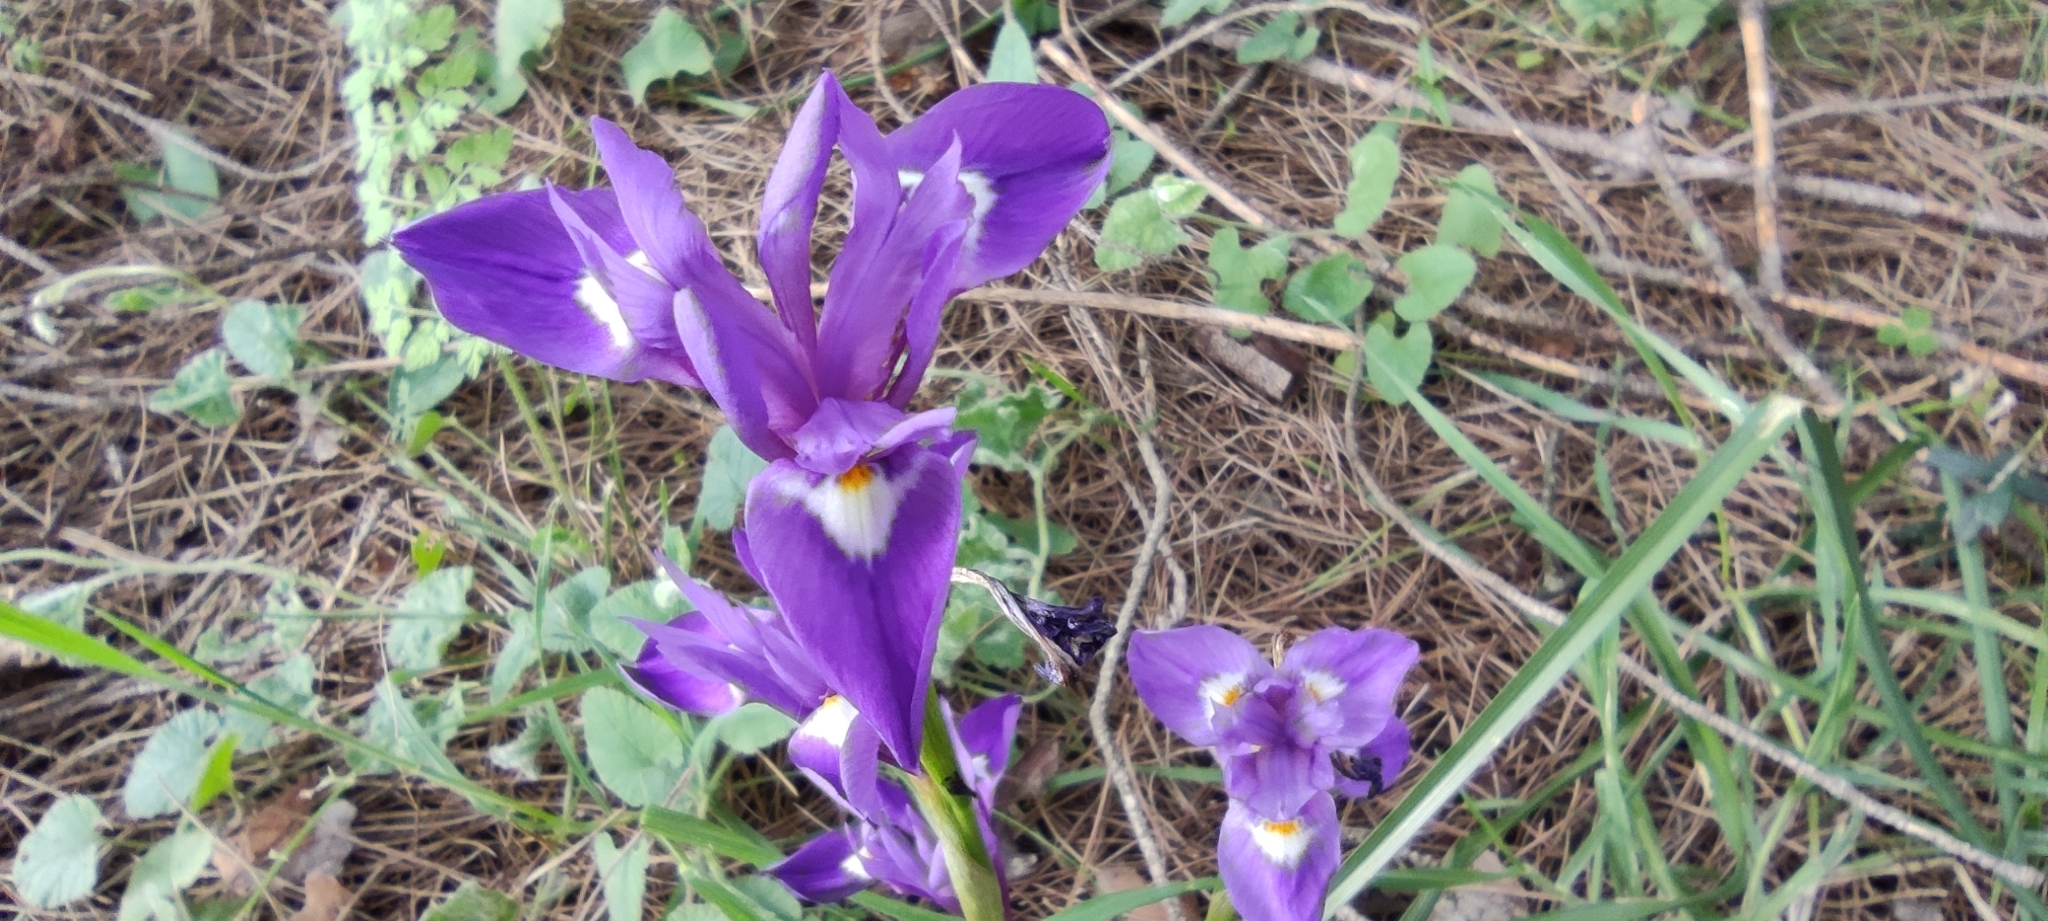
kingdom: Plantae
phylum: Tracheophyta
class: Liliopsida
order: Asparagales
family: Iridaceae
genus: Moraea
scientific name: Moraea sisyrinchium
